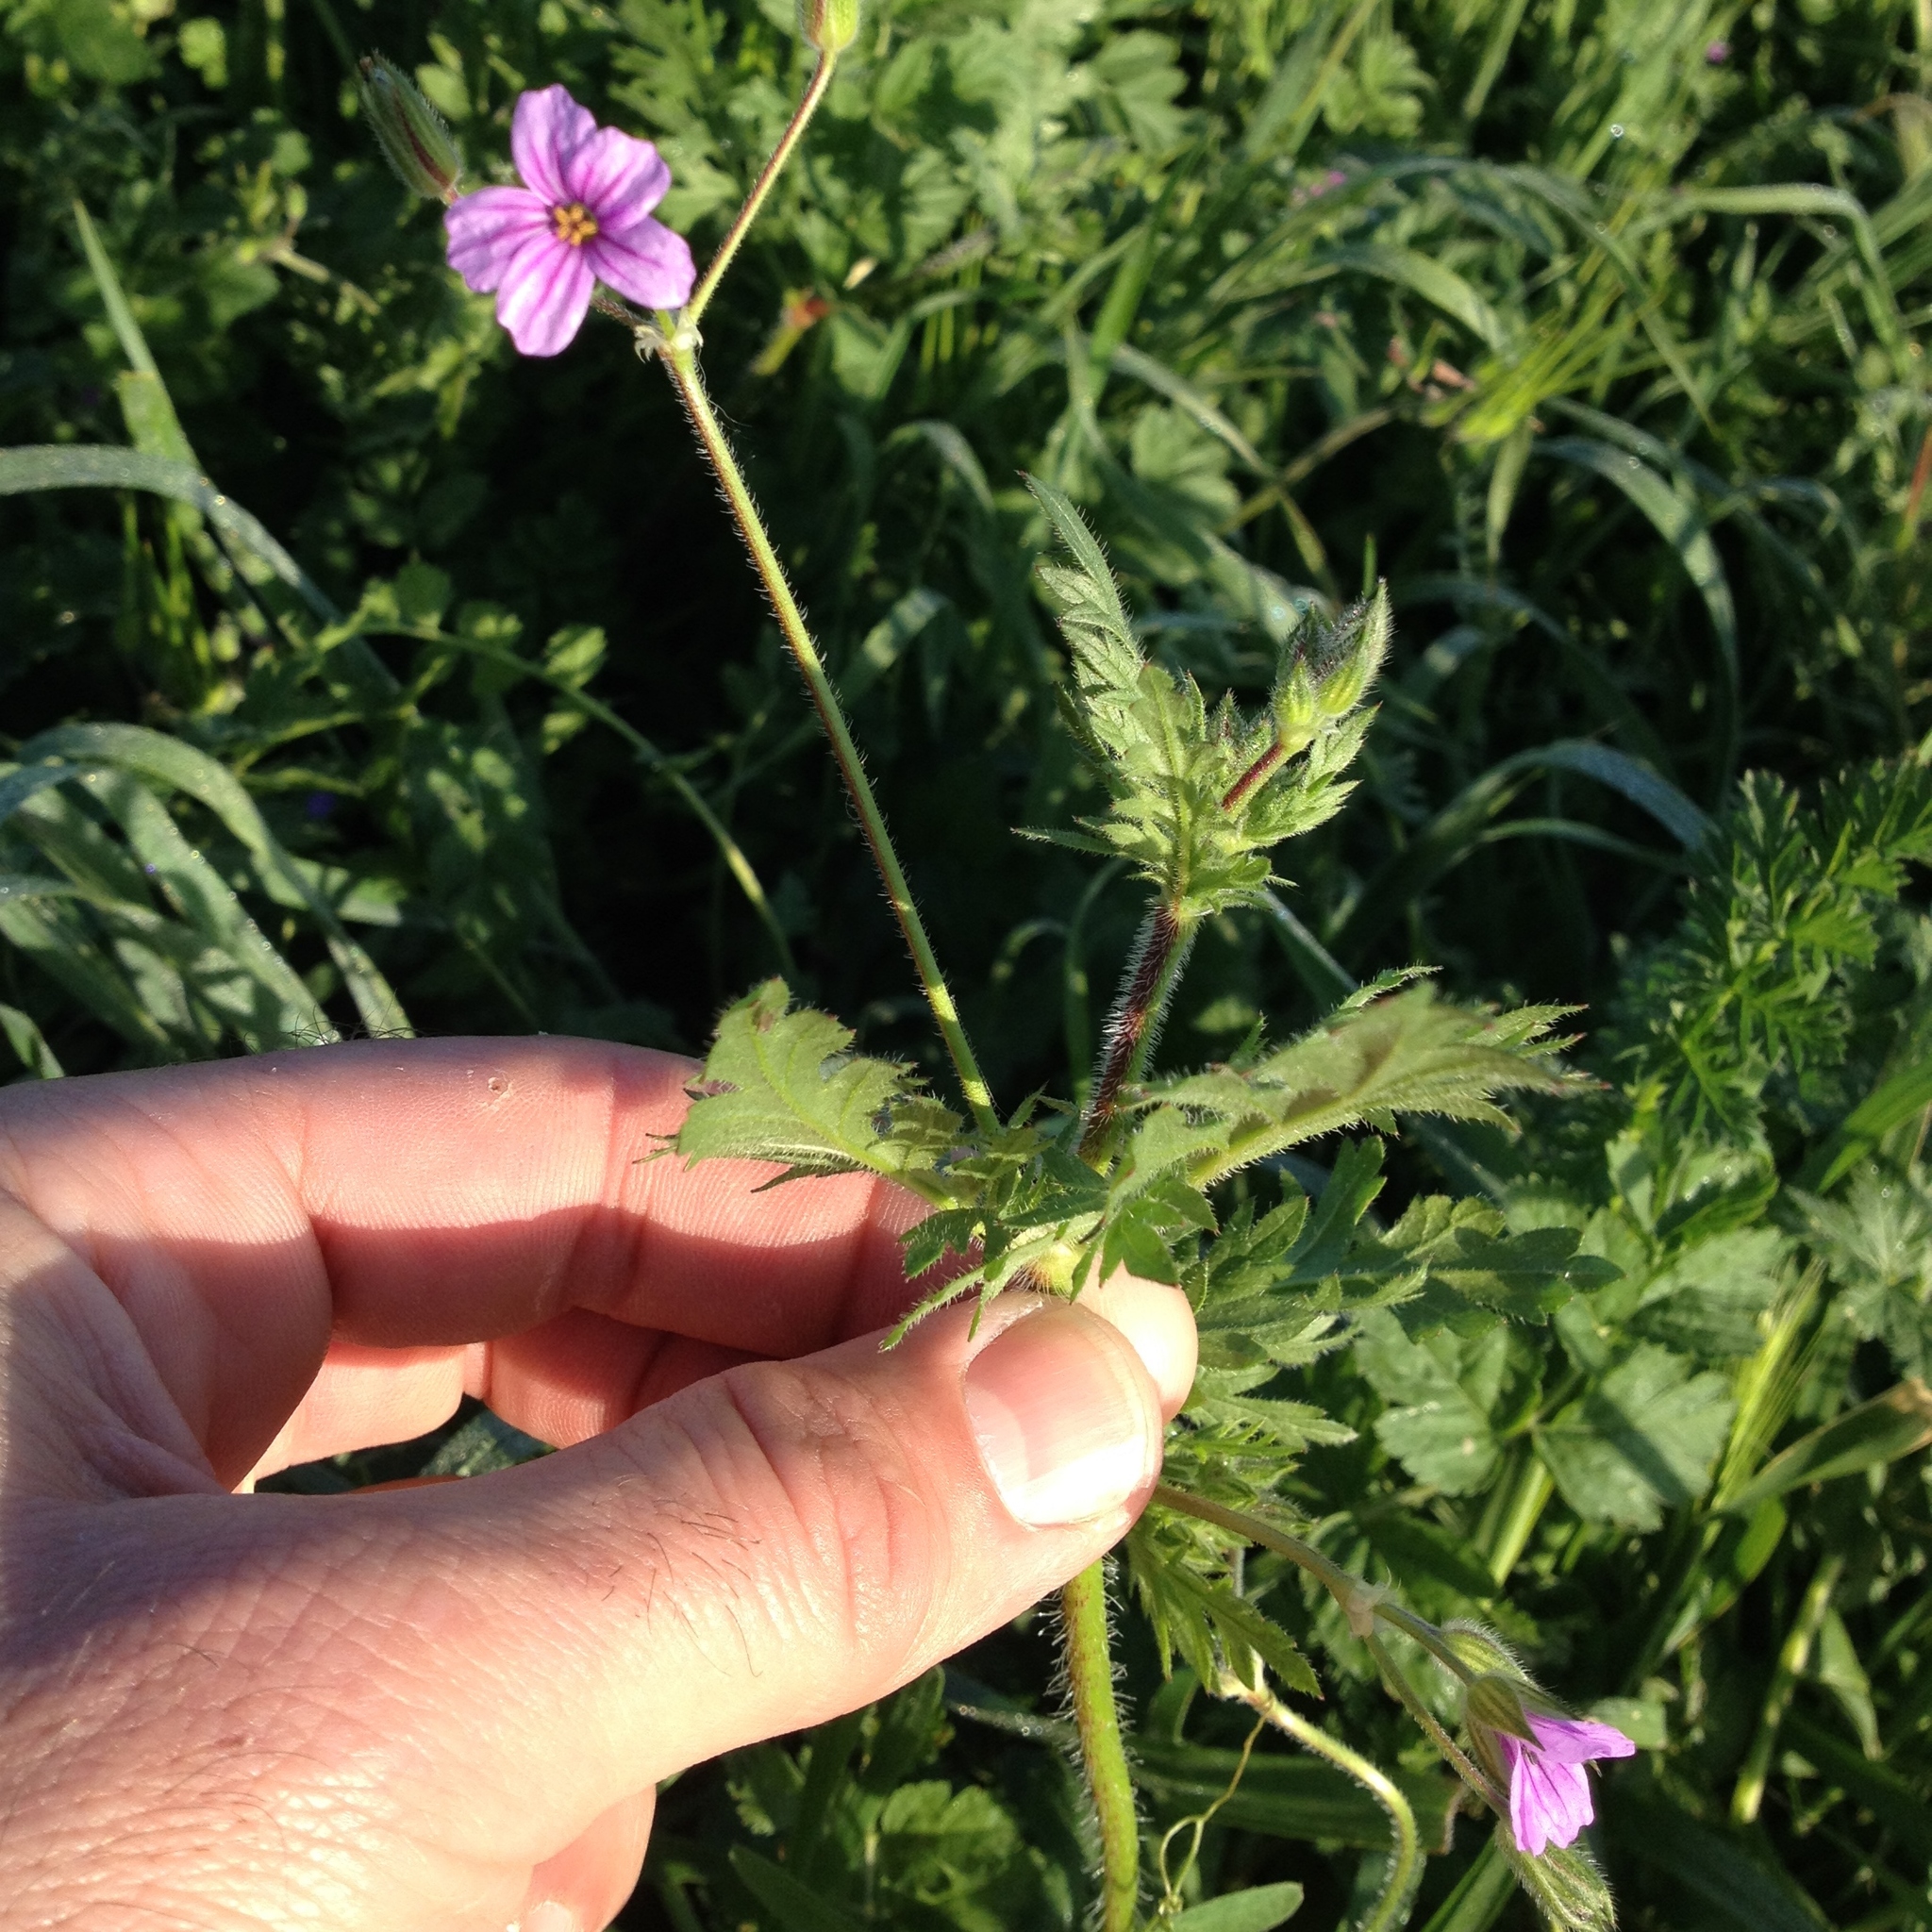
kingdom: Plantae
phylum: Tracheophyta
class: Magnoliopsida
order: Geraniales
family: Geraniaceae
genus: Erodium
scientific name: Erodium botrys
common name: Mediterranean stork's-bill
